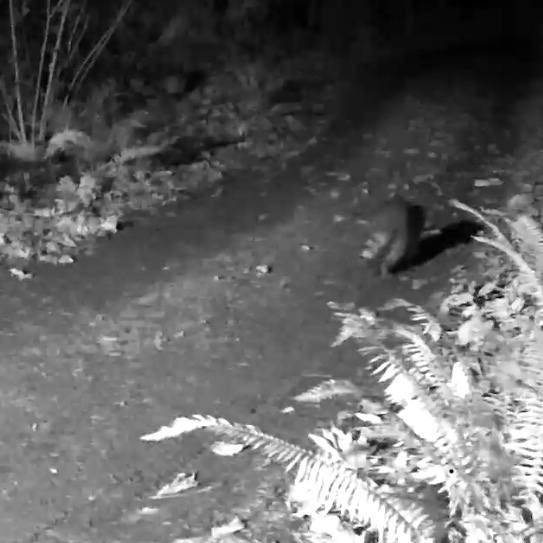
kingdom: Animalia
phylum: Chordata
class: Mammalia
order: Carnivora
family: Procyonidae
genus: Procyon
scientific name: Procyon lotor
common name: Raccoon
